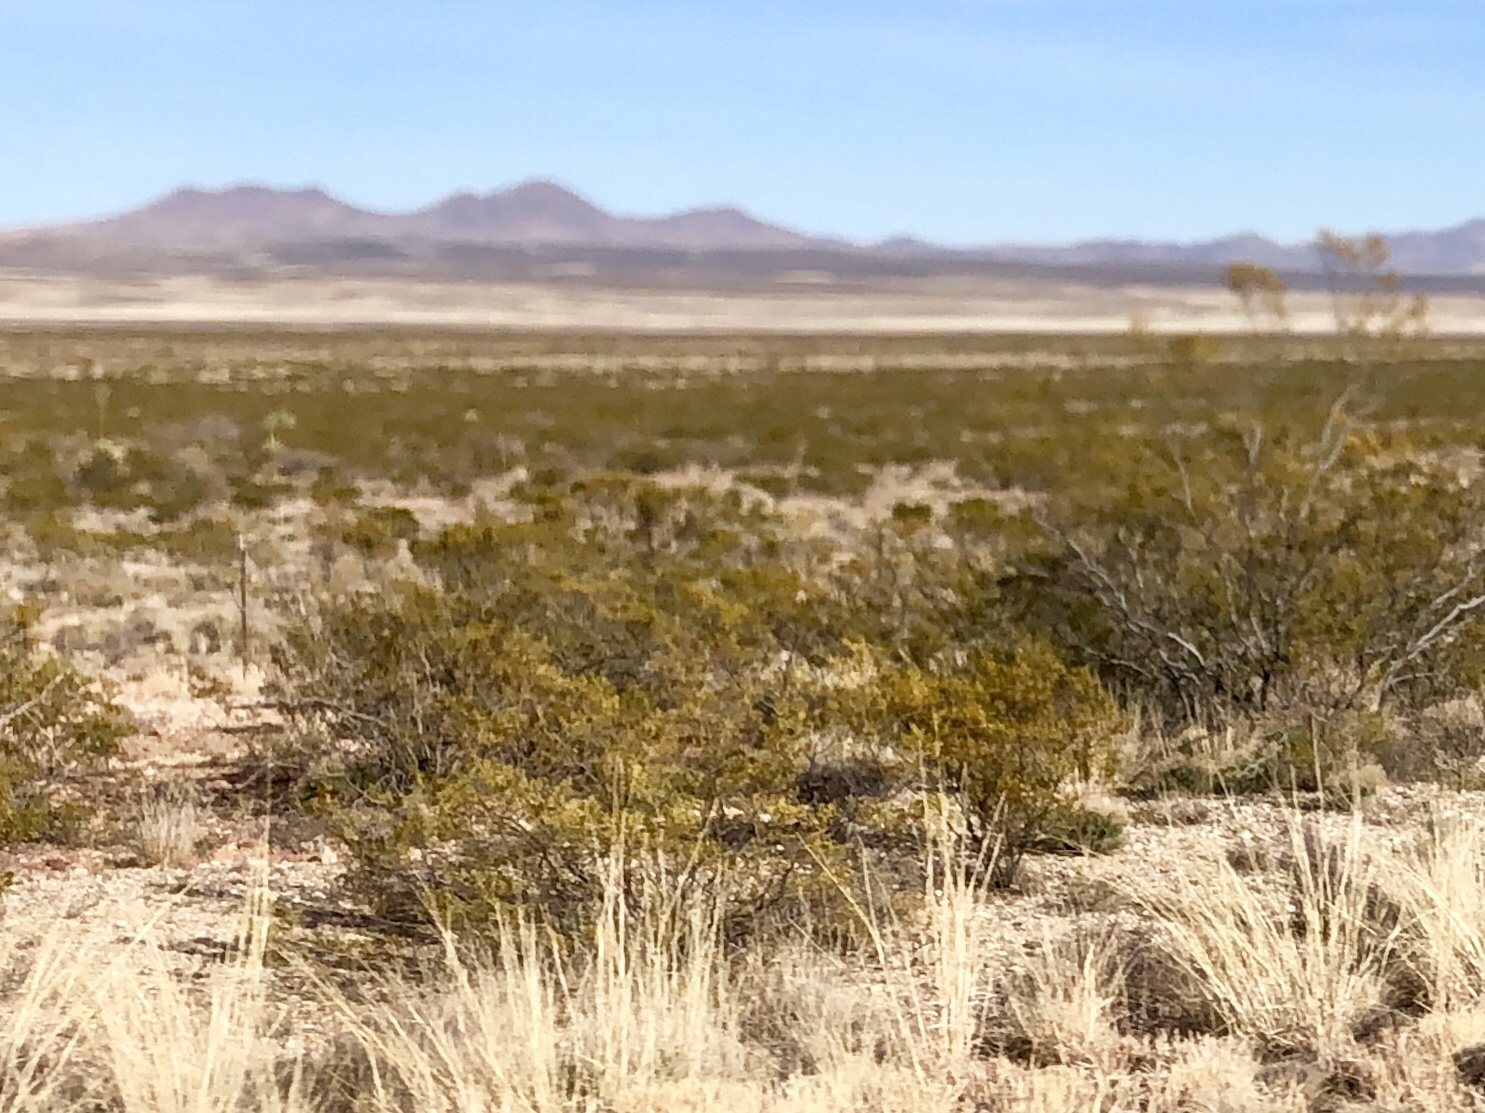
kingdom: Plantae
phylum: Tracheophyta
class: Magnoliopsida
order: Zygophyllales
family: Zygophyllaceae
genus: Larrea
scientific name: Larrea tridentata
